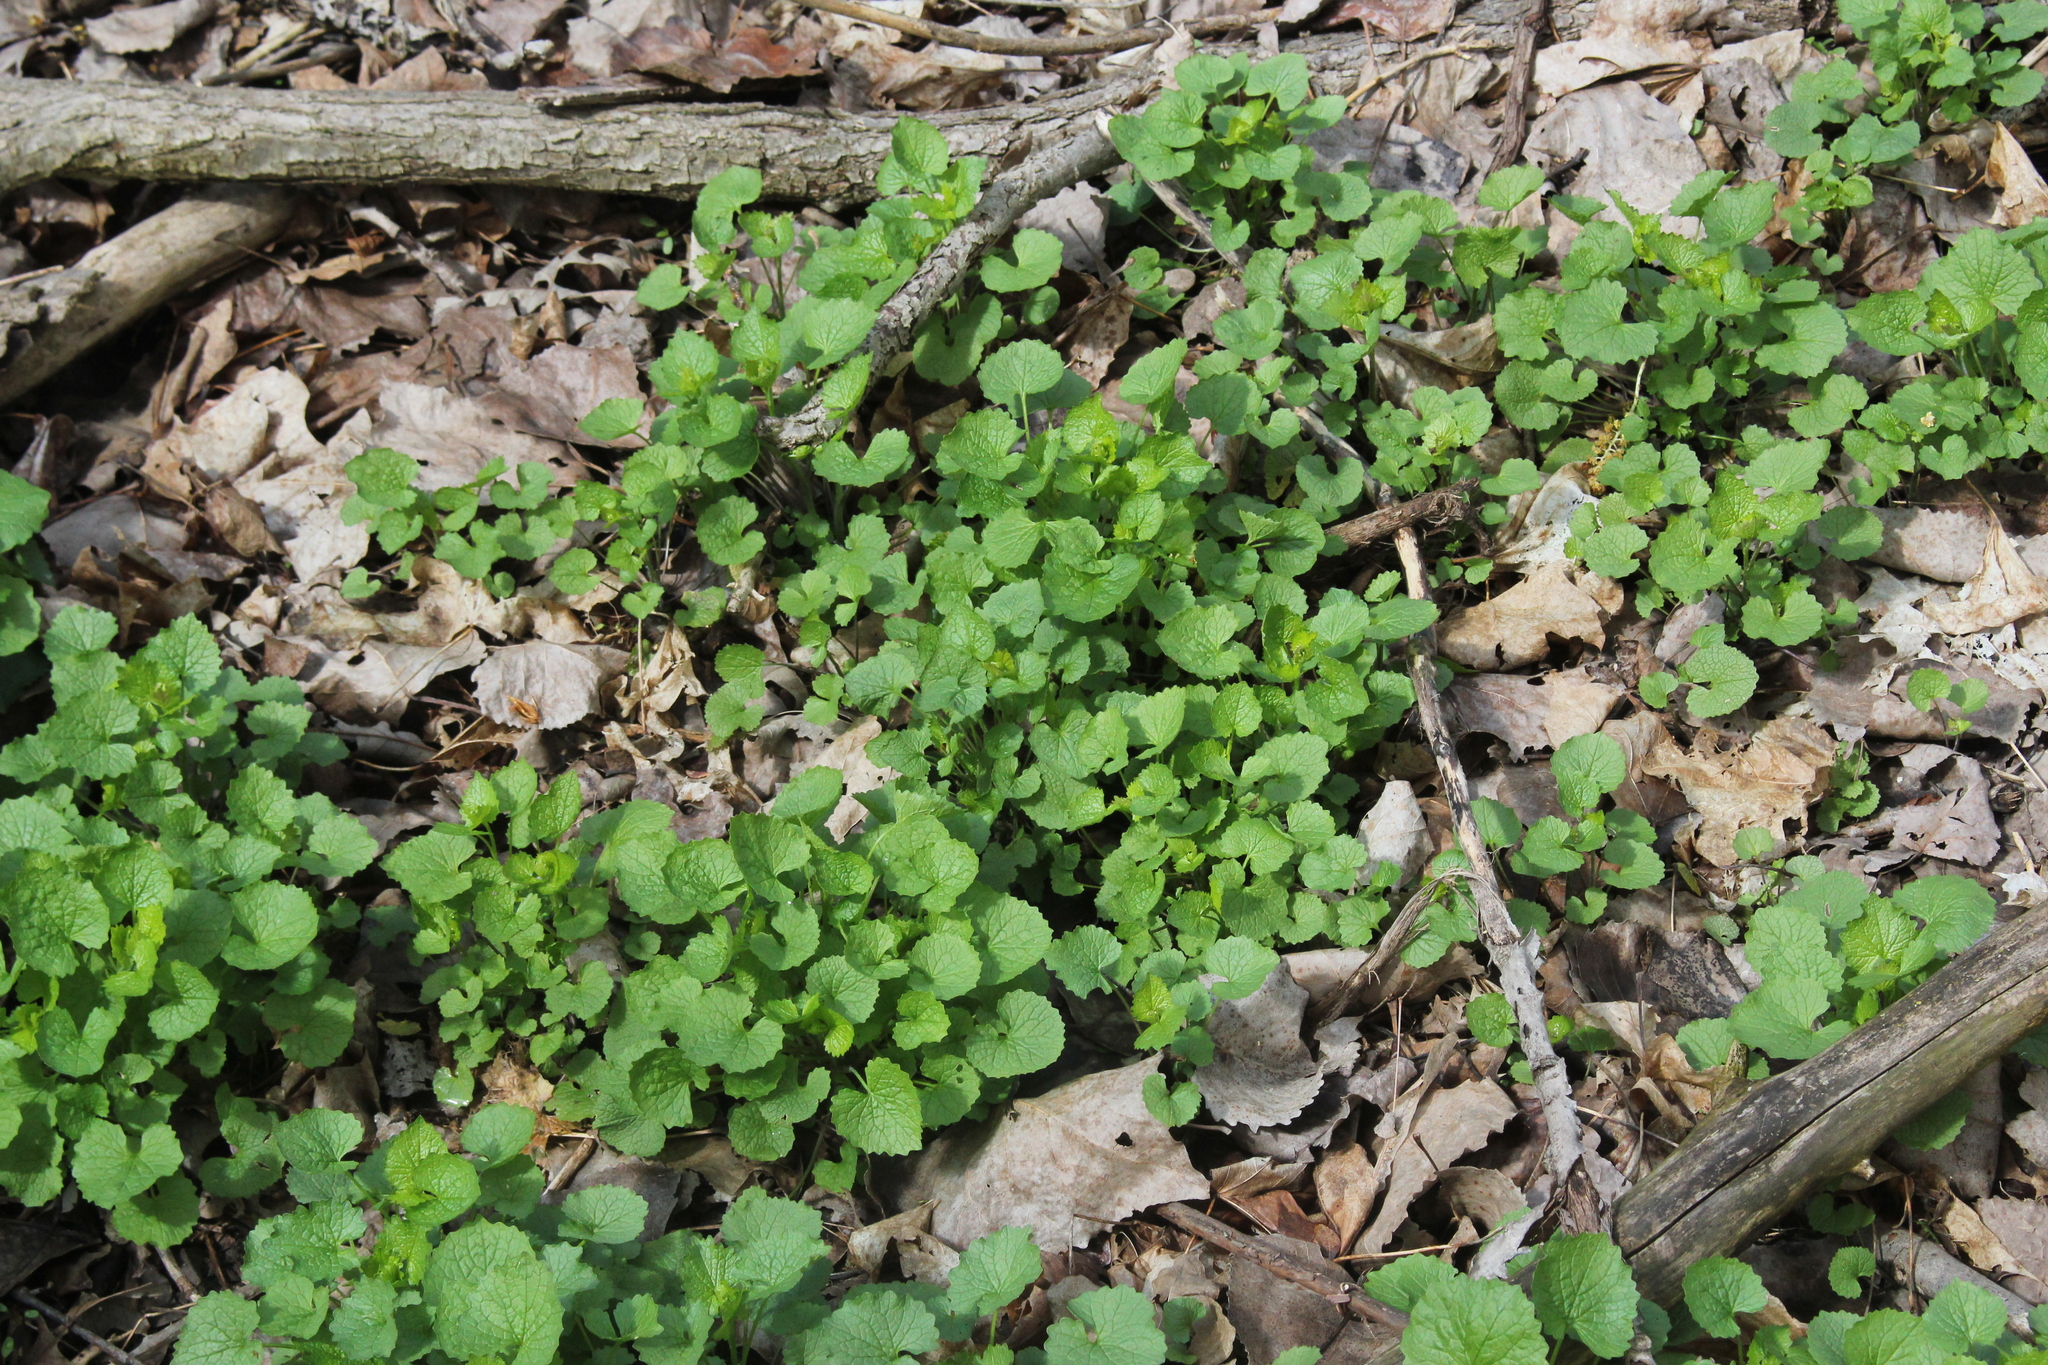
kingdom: Plantae
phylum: Tracheophyta
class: Magnoliopsida
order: Brassicales
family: Brassicaceae
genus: Alliaria
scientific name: Alliaria petiolata
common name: Garlic mustard
